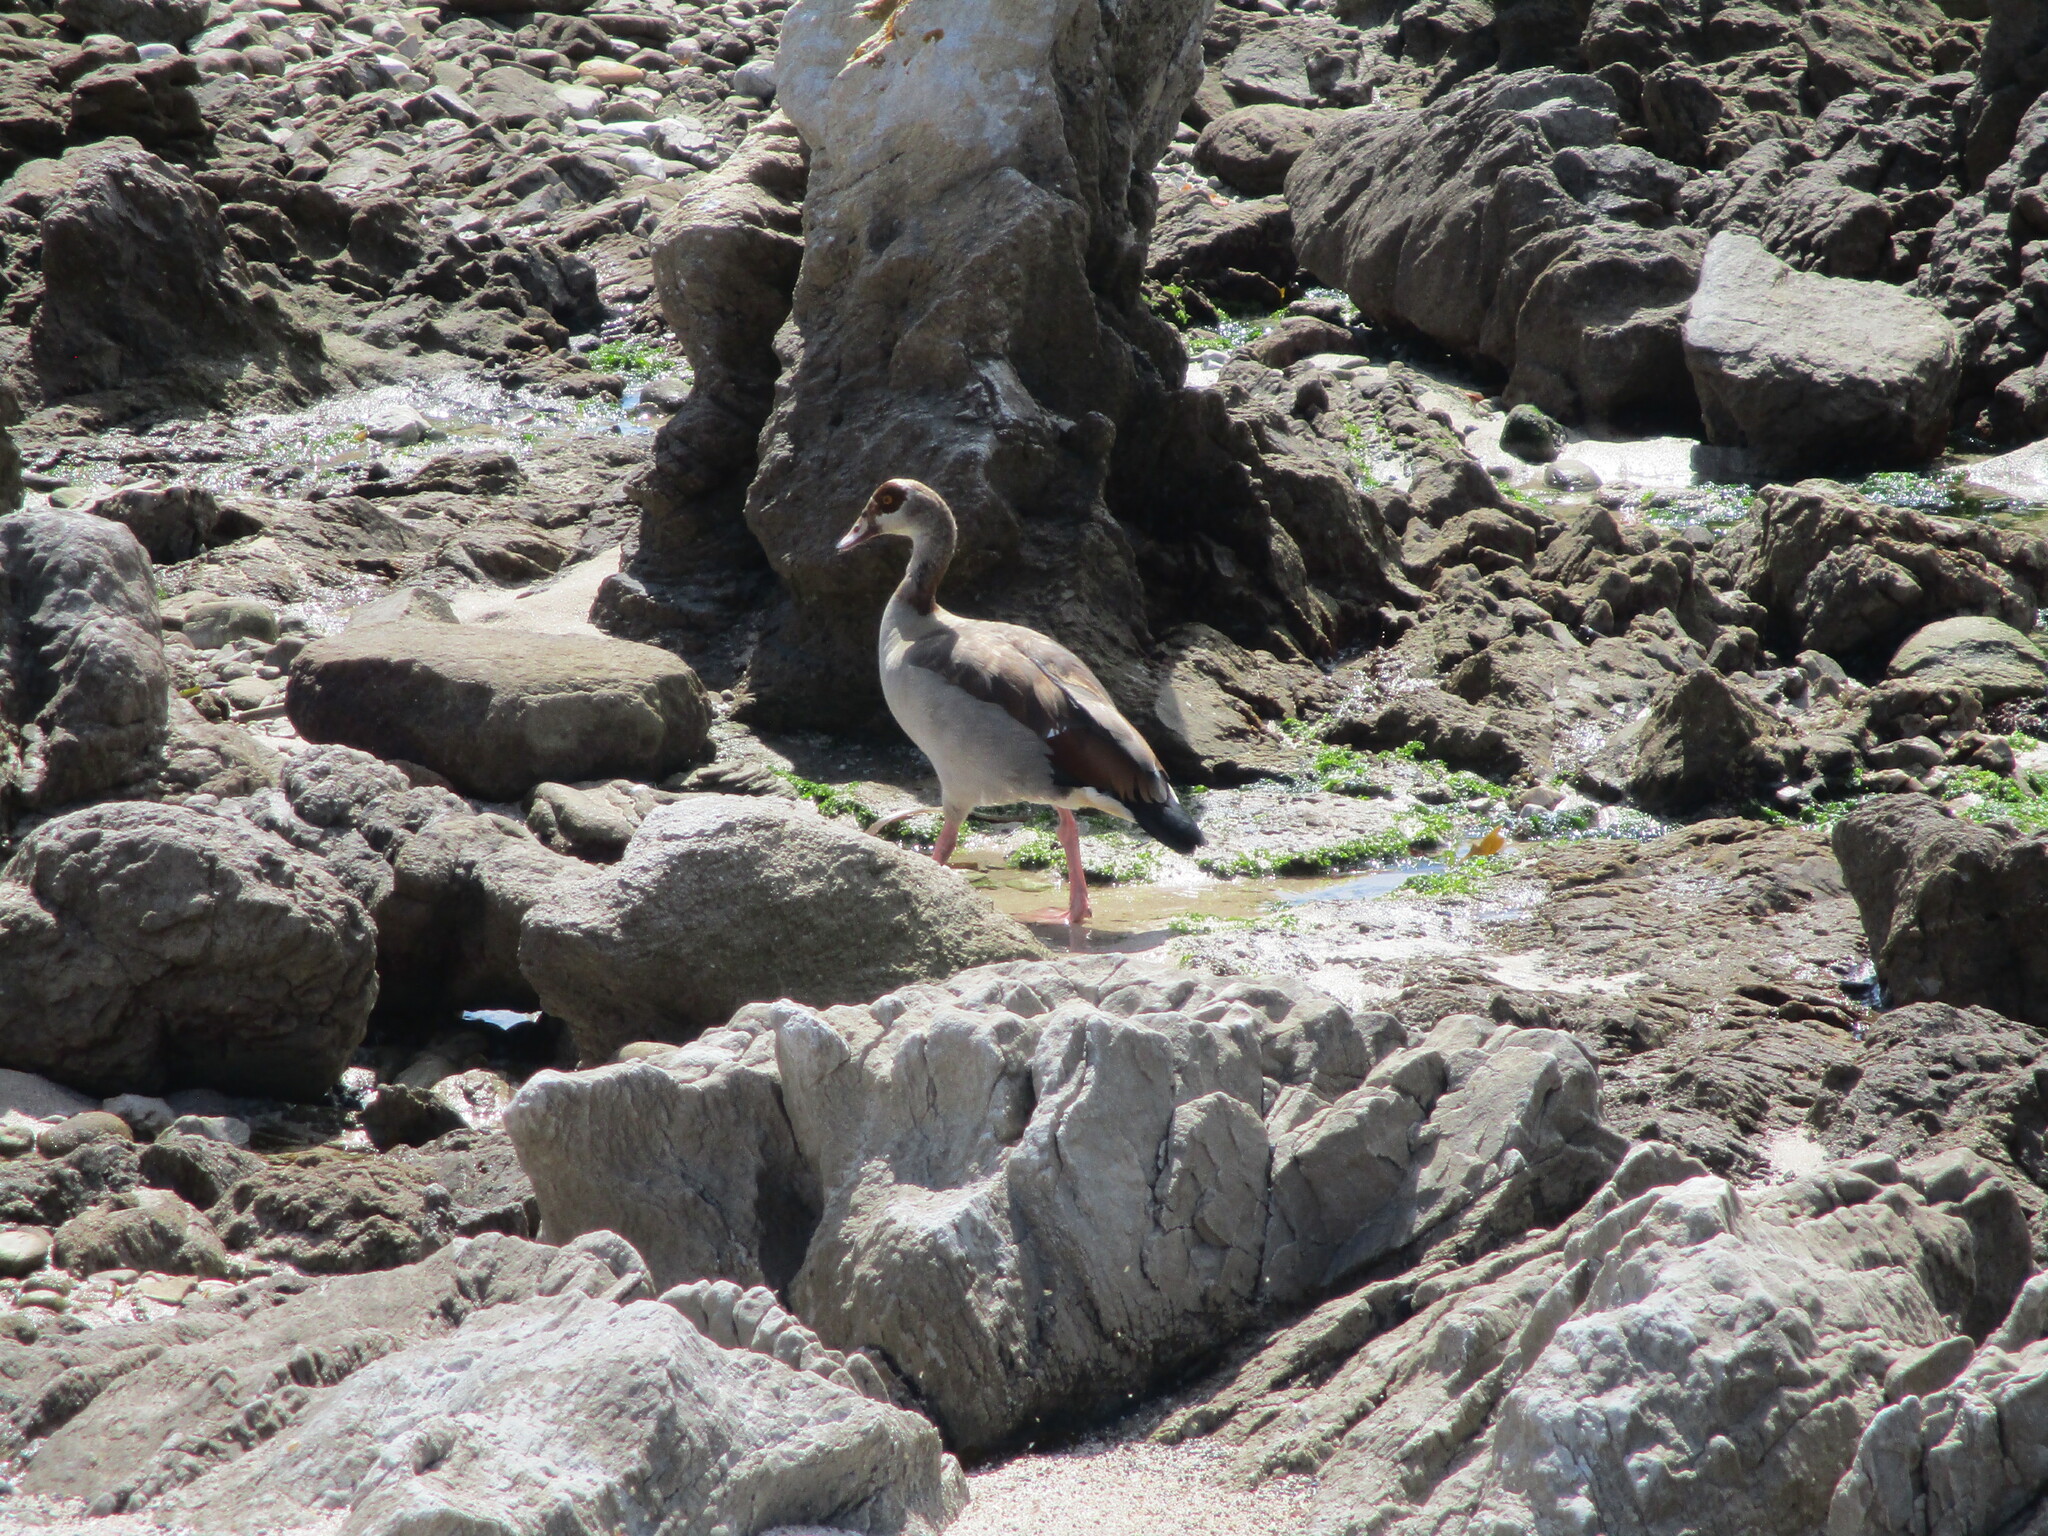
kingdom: Animalia
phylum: Chordata
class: Aves
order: Anseriformes
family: Anatidae
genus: Alopochen
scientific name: Alopochen aegyptiaca
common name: Egyptian goose
